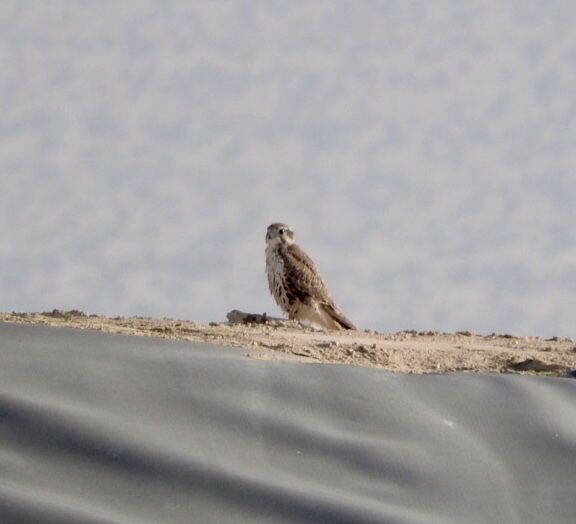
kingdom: Animalia
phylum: Chordata
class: Aves
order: Falconiformes
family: Falconidae
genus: Falco
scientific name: Falco mexicanus
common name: Prairie falcon
